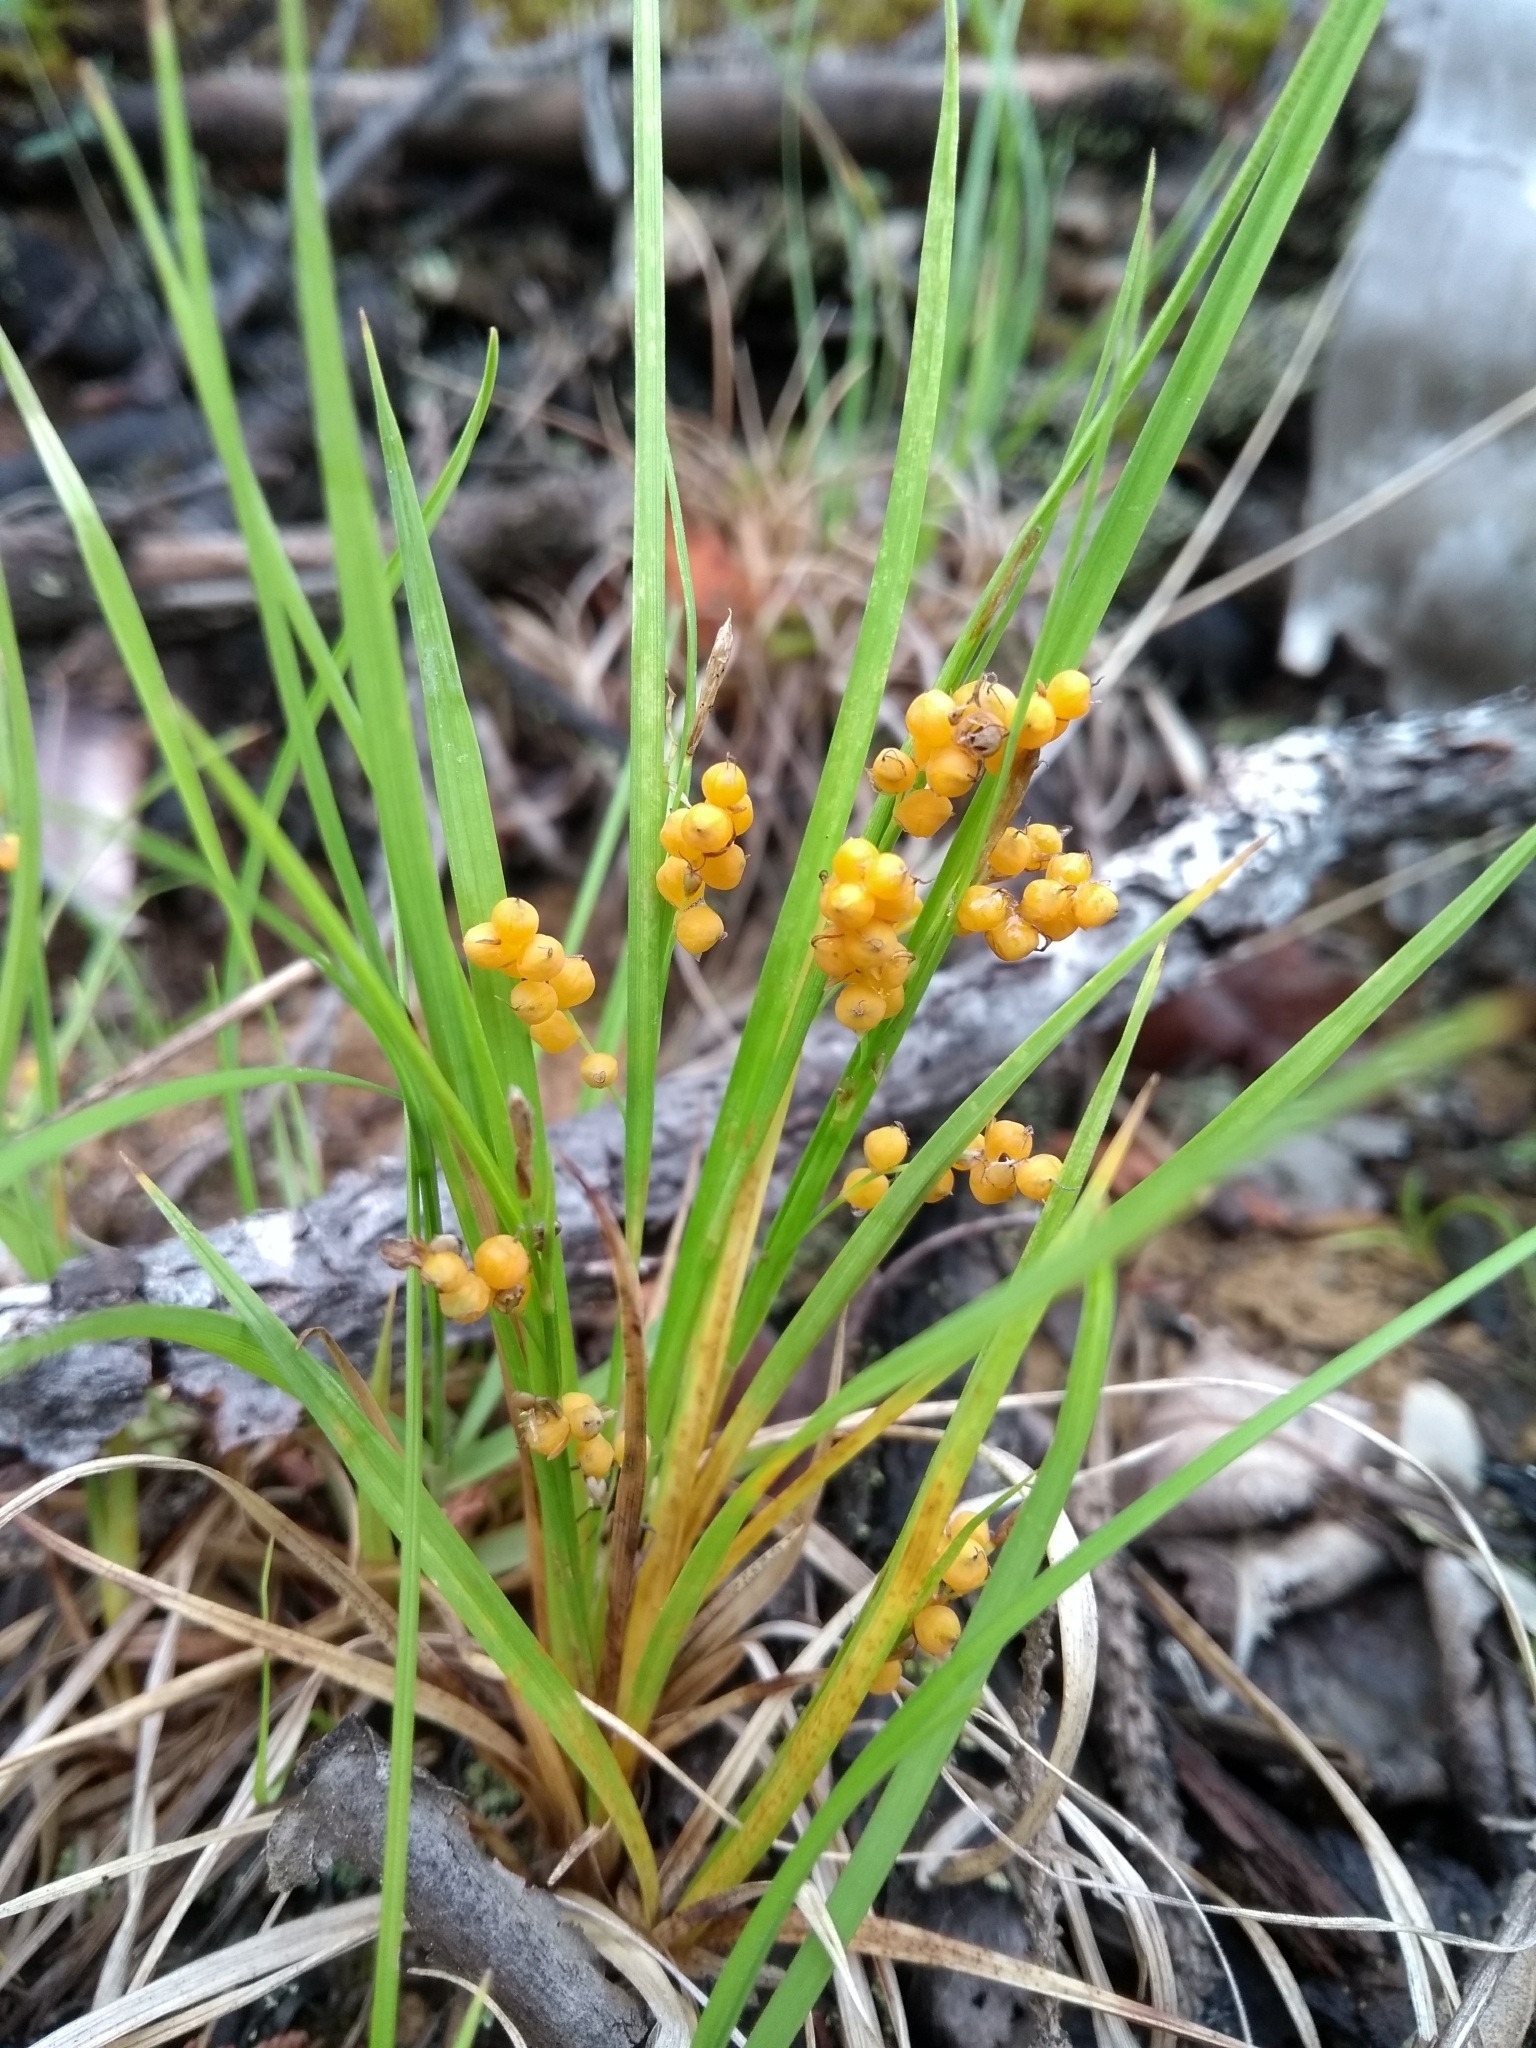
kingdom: Plantae
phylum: Tracheophyta
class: Liliopsida
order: Poales
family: Cyperaceae
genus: Carex
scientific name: Carex aurea
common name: Golden sedge
